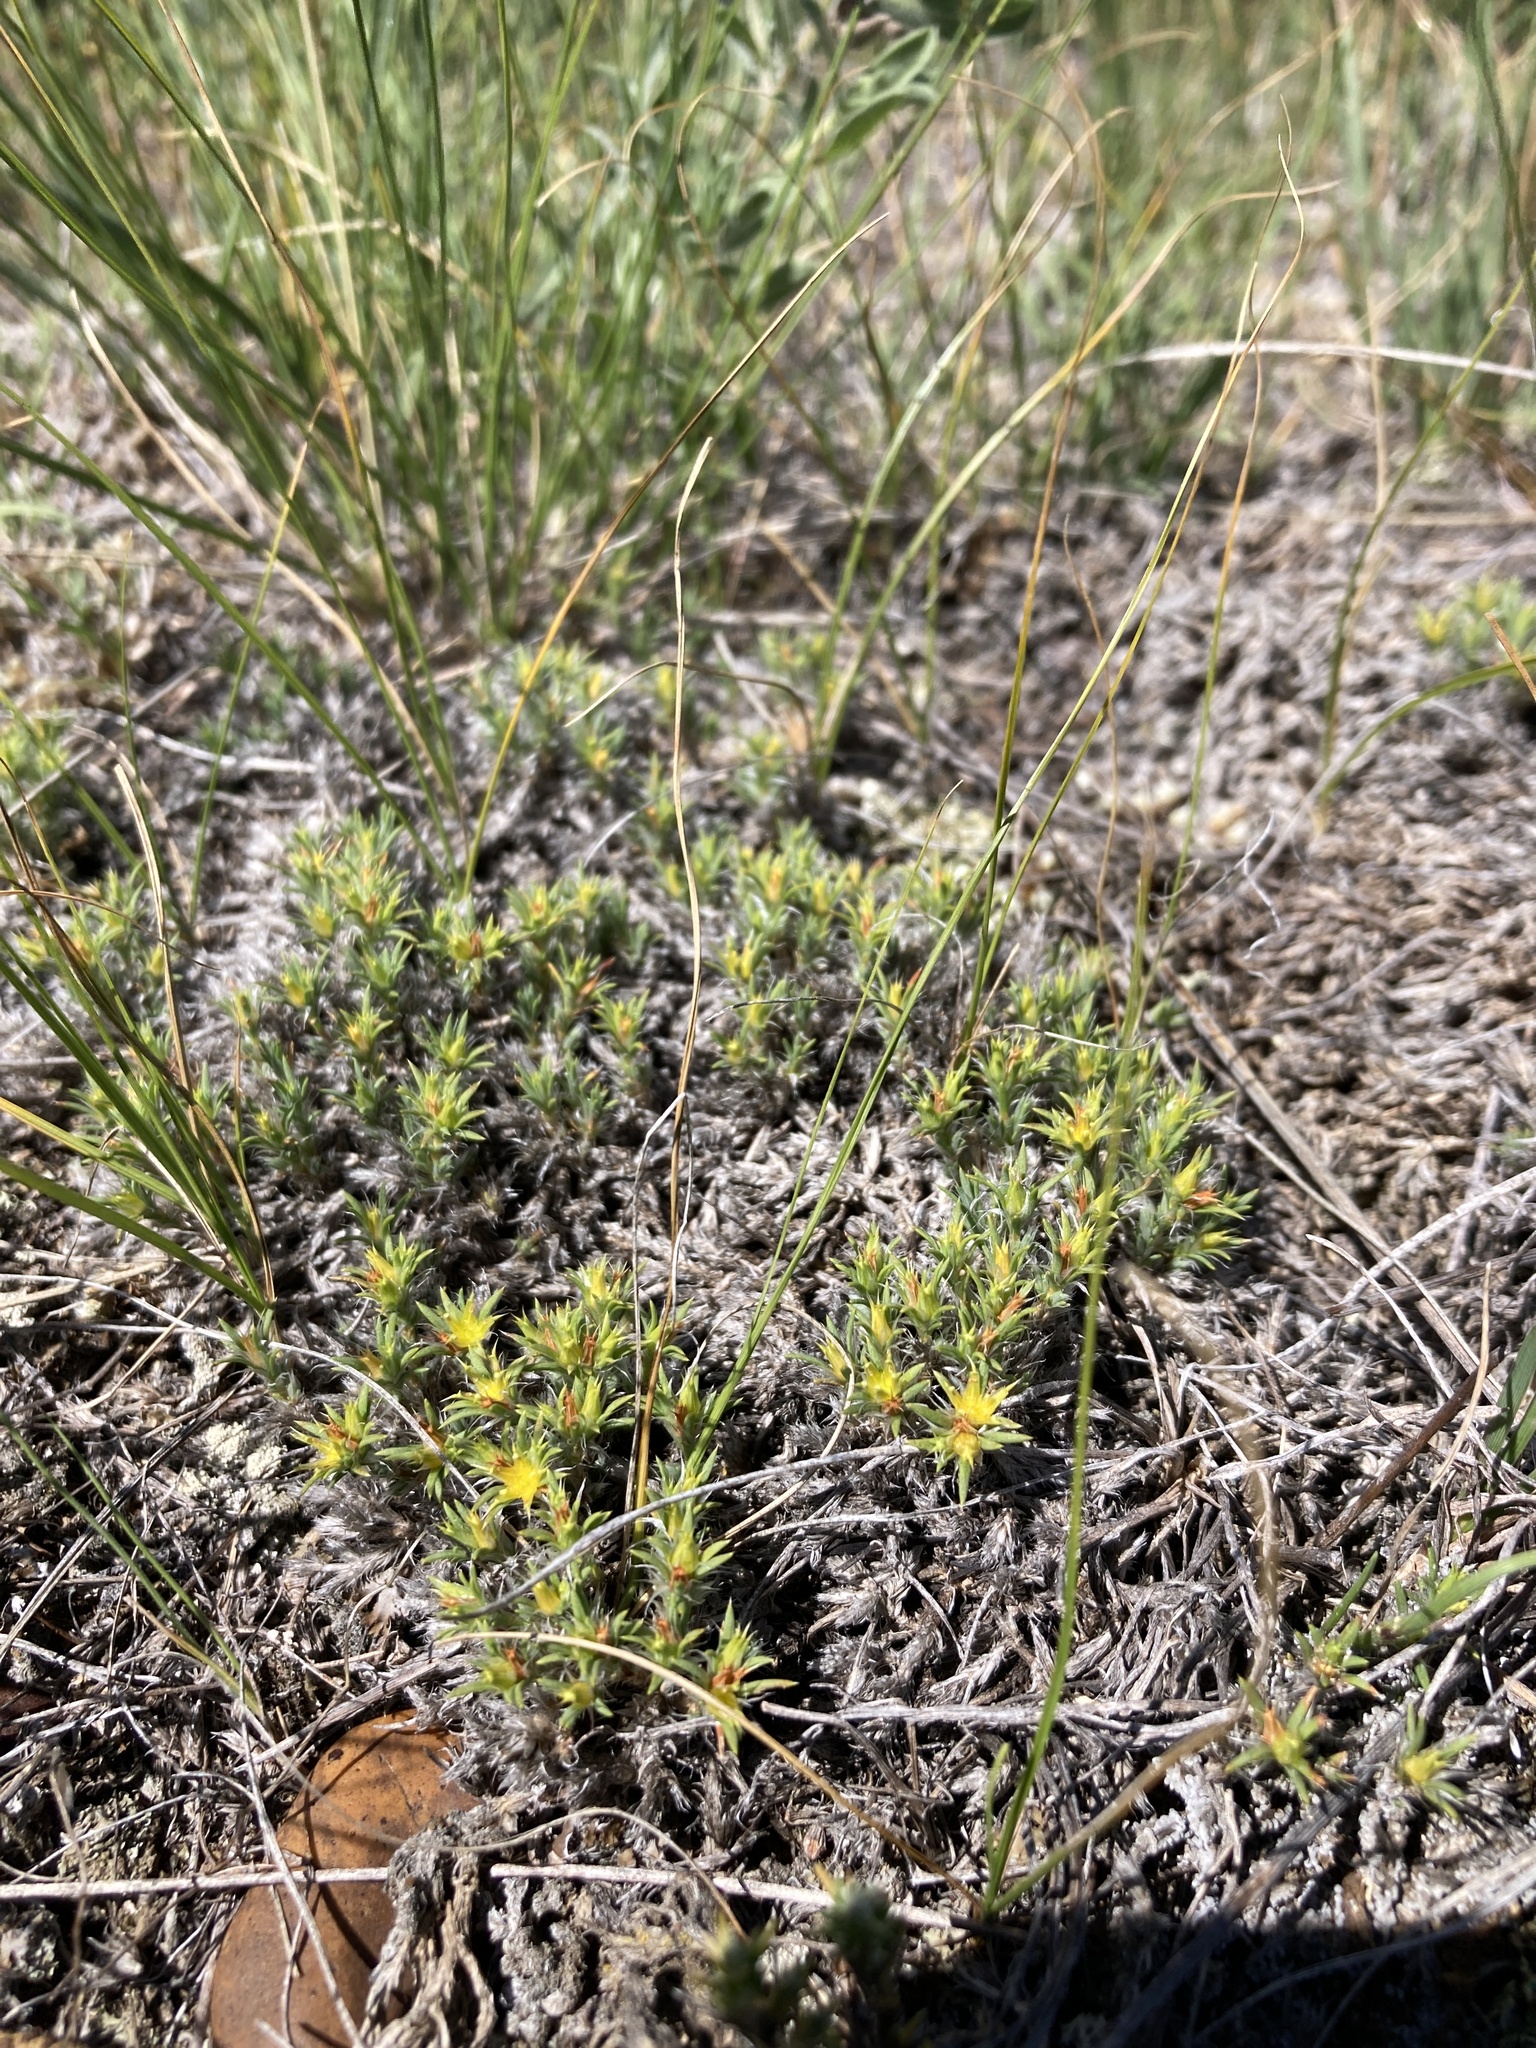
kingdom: Plantae
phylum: Tracheophyta
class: Magnoliopsida
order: Caryophyllales
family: Caryophyllaceae
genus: Paronychia
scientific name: Paronychia sessiliflora
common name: Creeping nailwort
